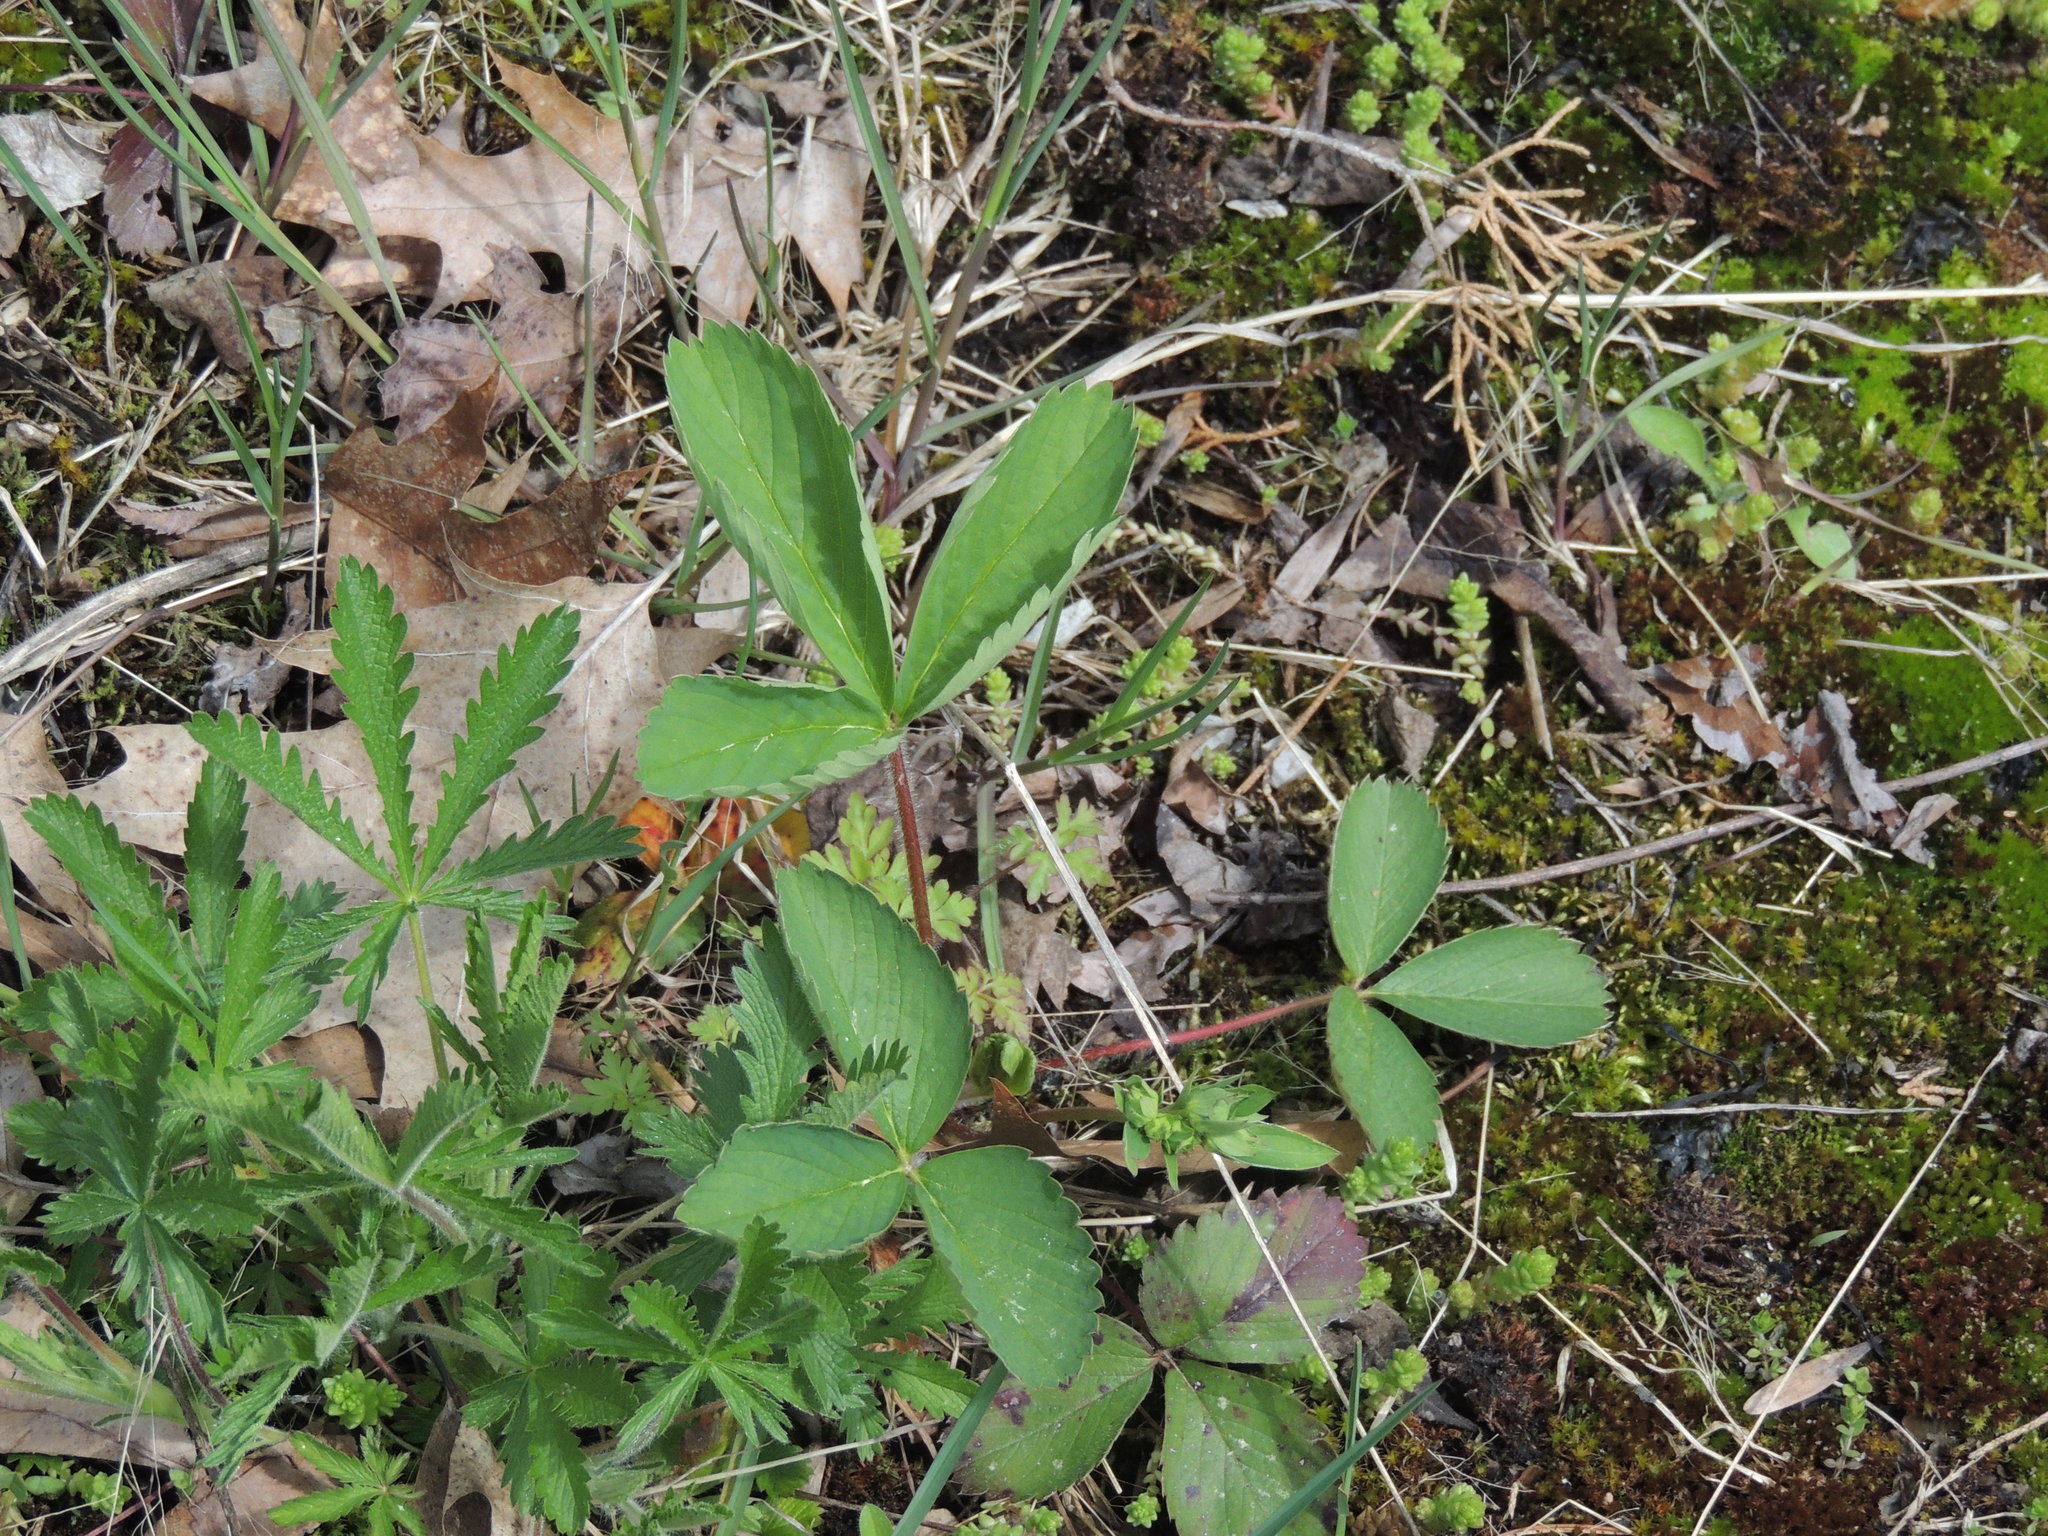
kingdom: Plantae
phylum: Tracheophyta
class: Magnoliopsida
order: Rosales
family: Rosaceae
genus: Fragaria
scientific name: Fragaria virginiana
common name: Thickleaved wild strawberry
